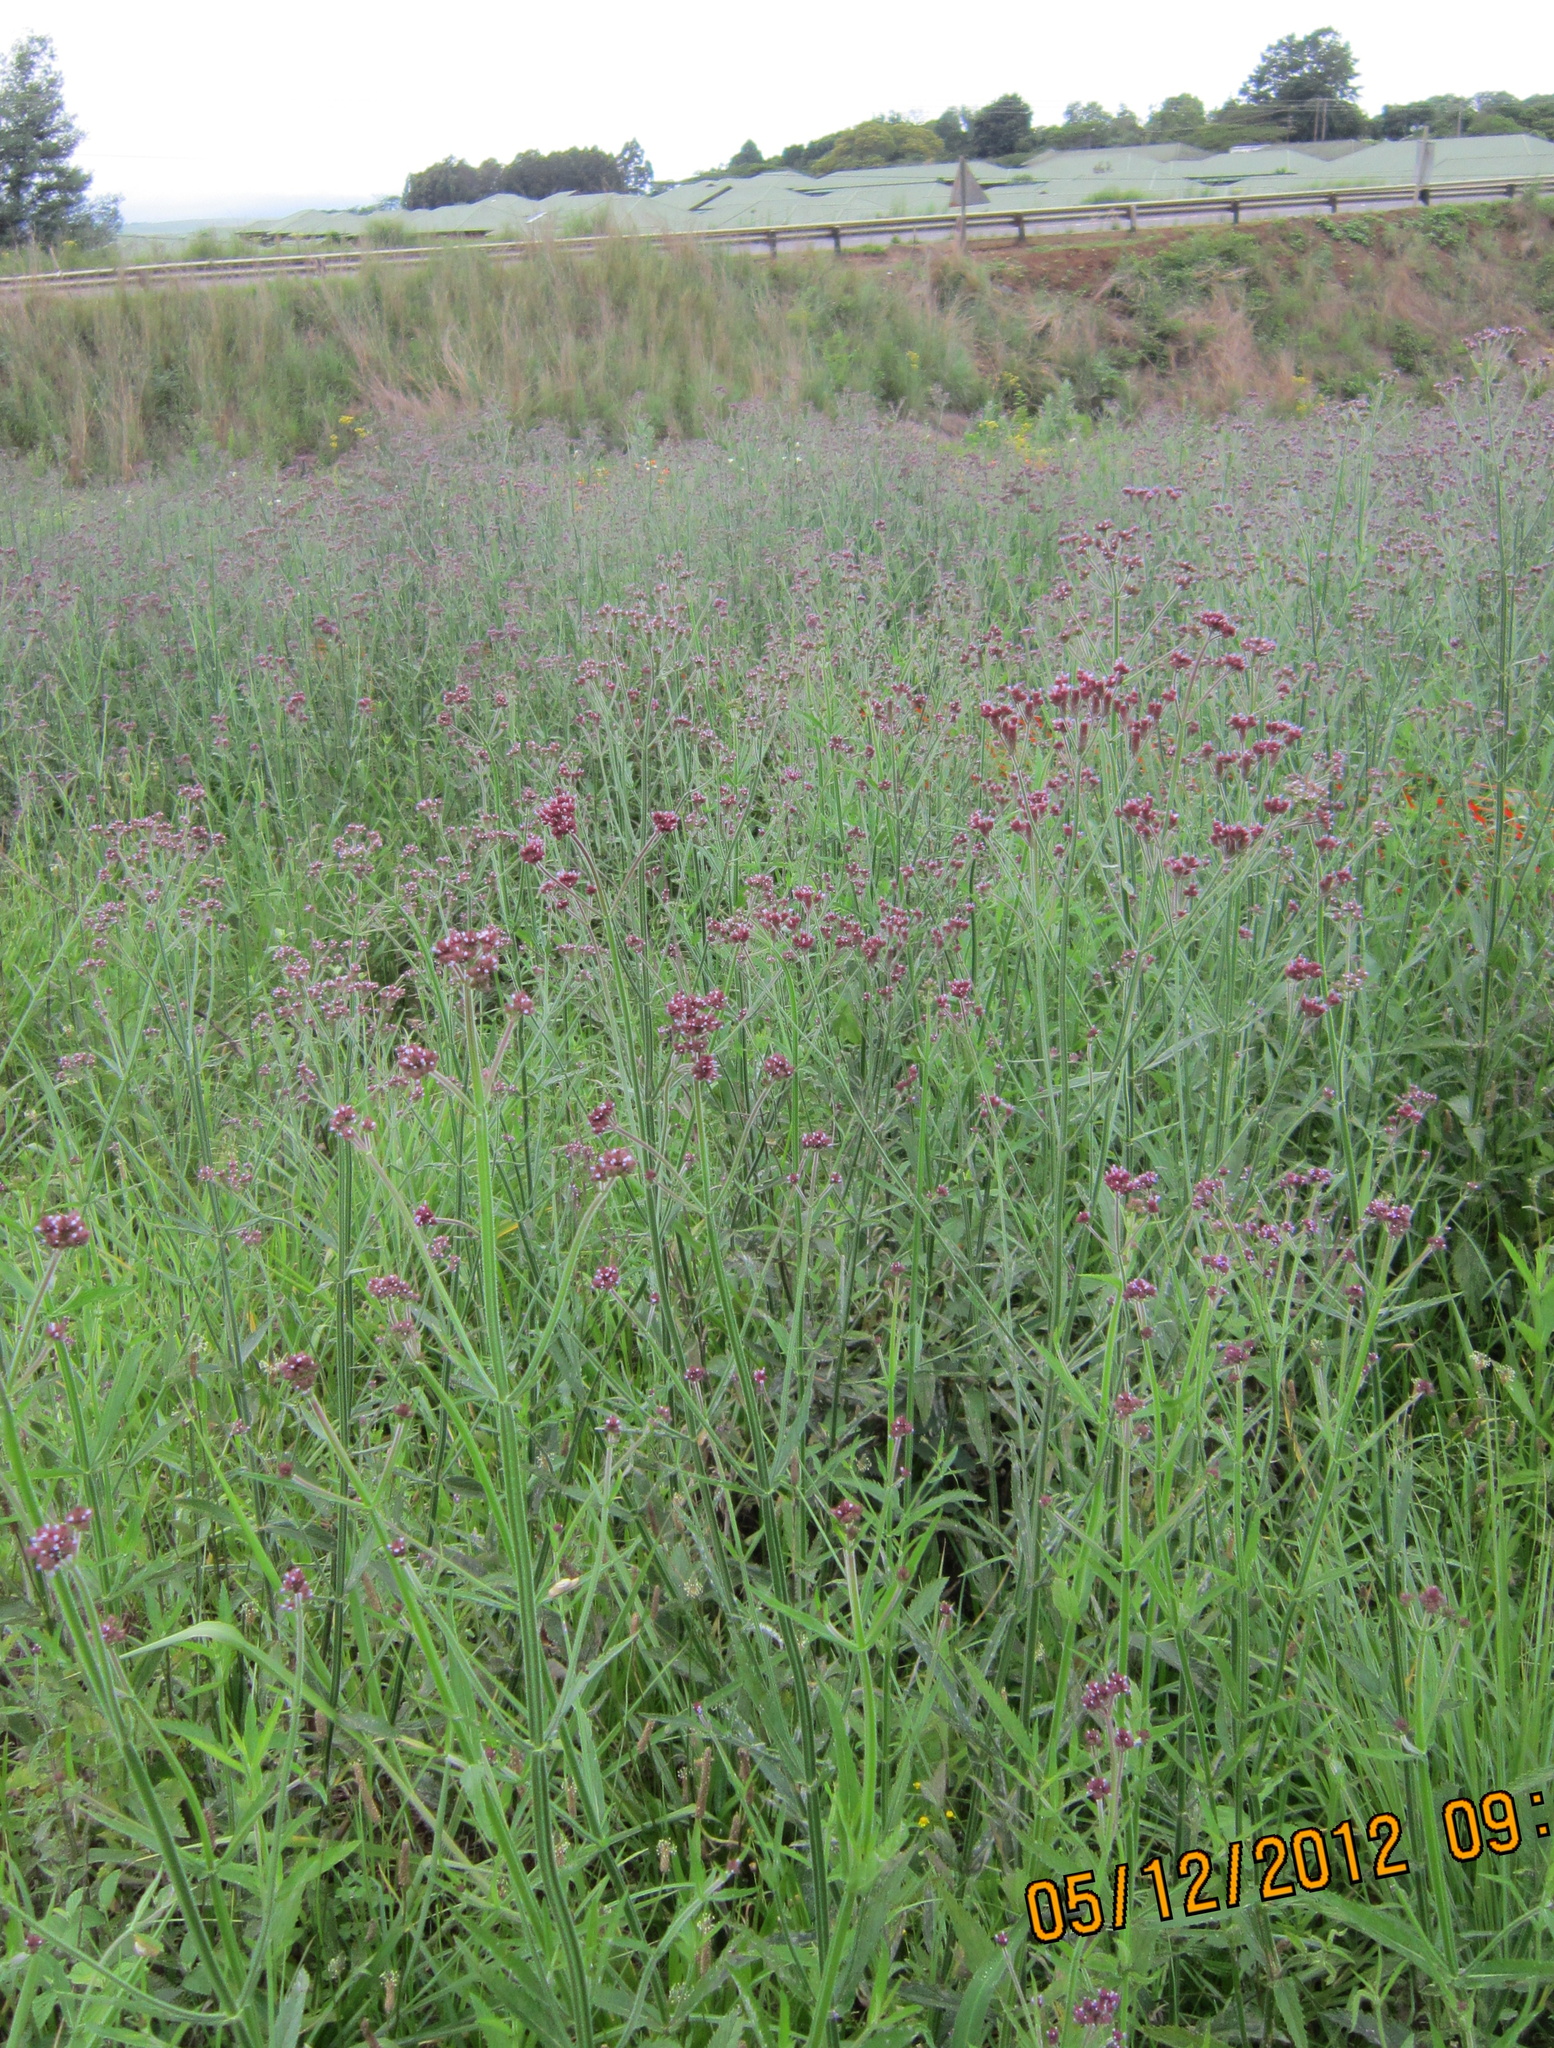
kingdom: Plantae
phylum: Tracheophyta
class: Magnoliopsida
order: Lamiales
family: Verbenaceae
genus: Verbena
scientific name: Verbena bonariensis
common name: Purpletop vervain
